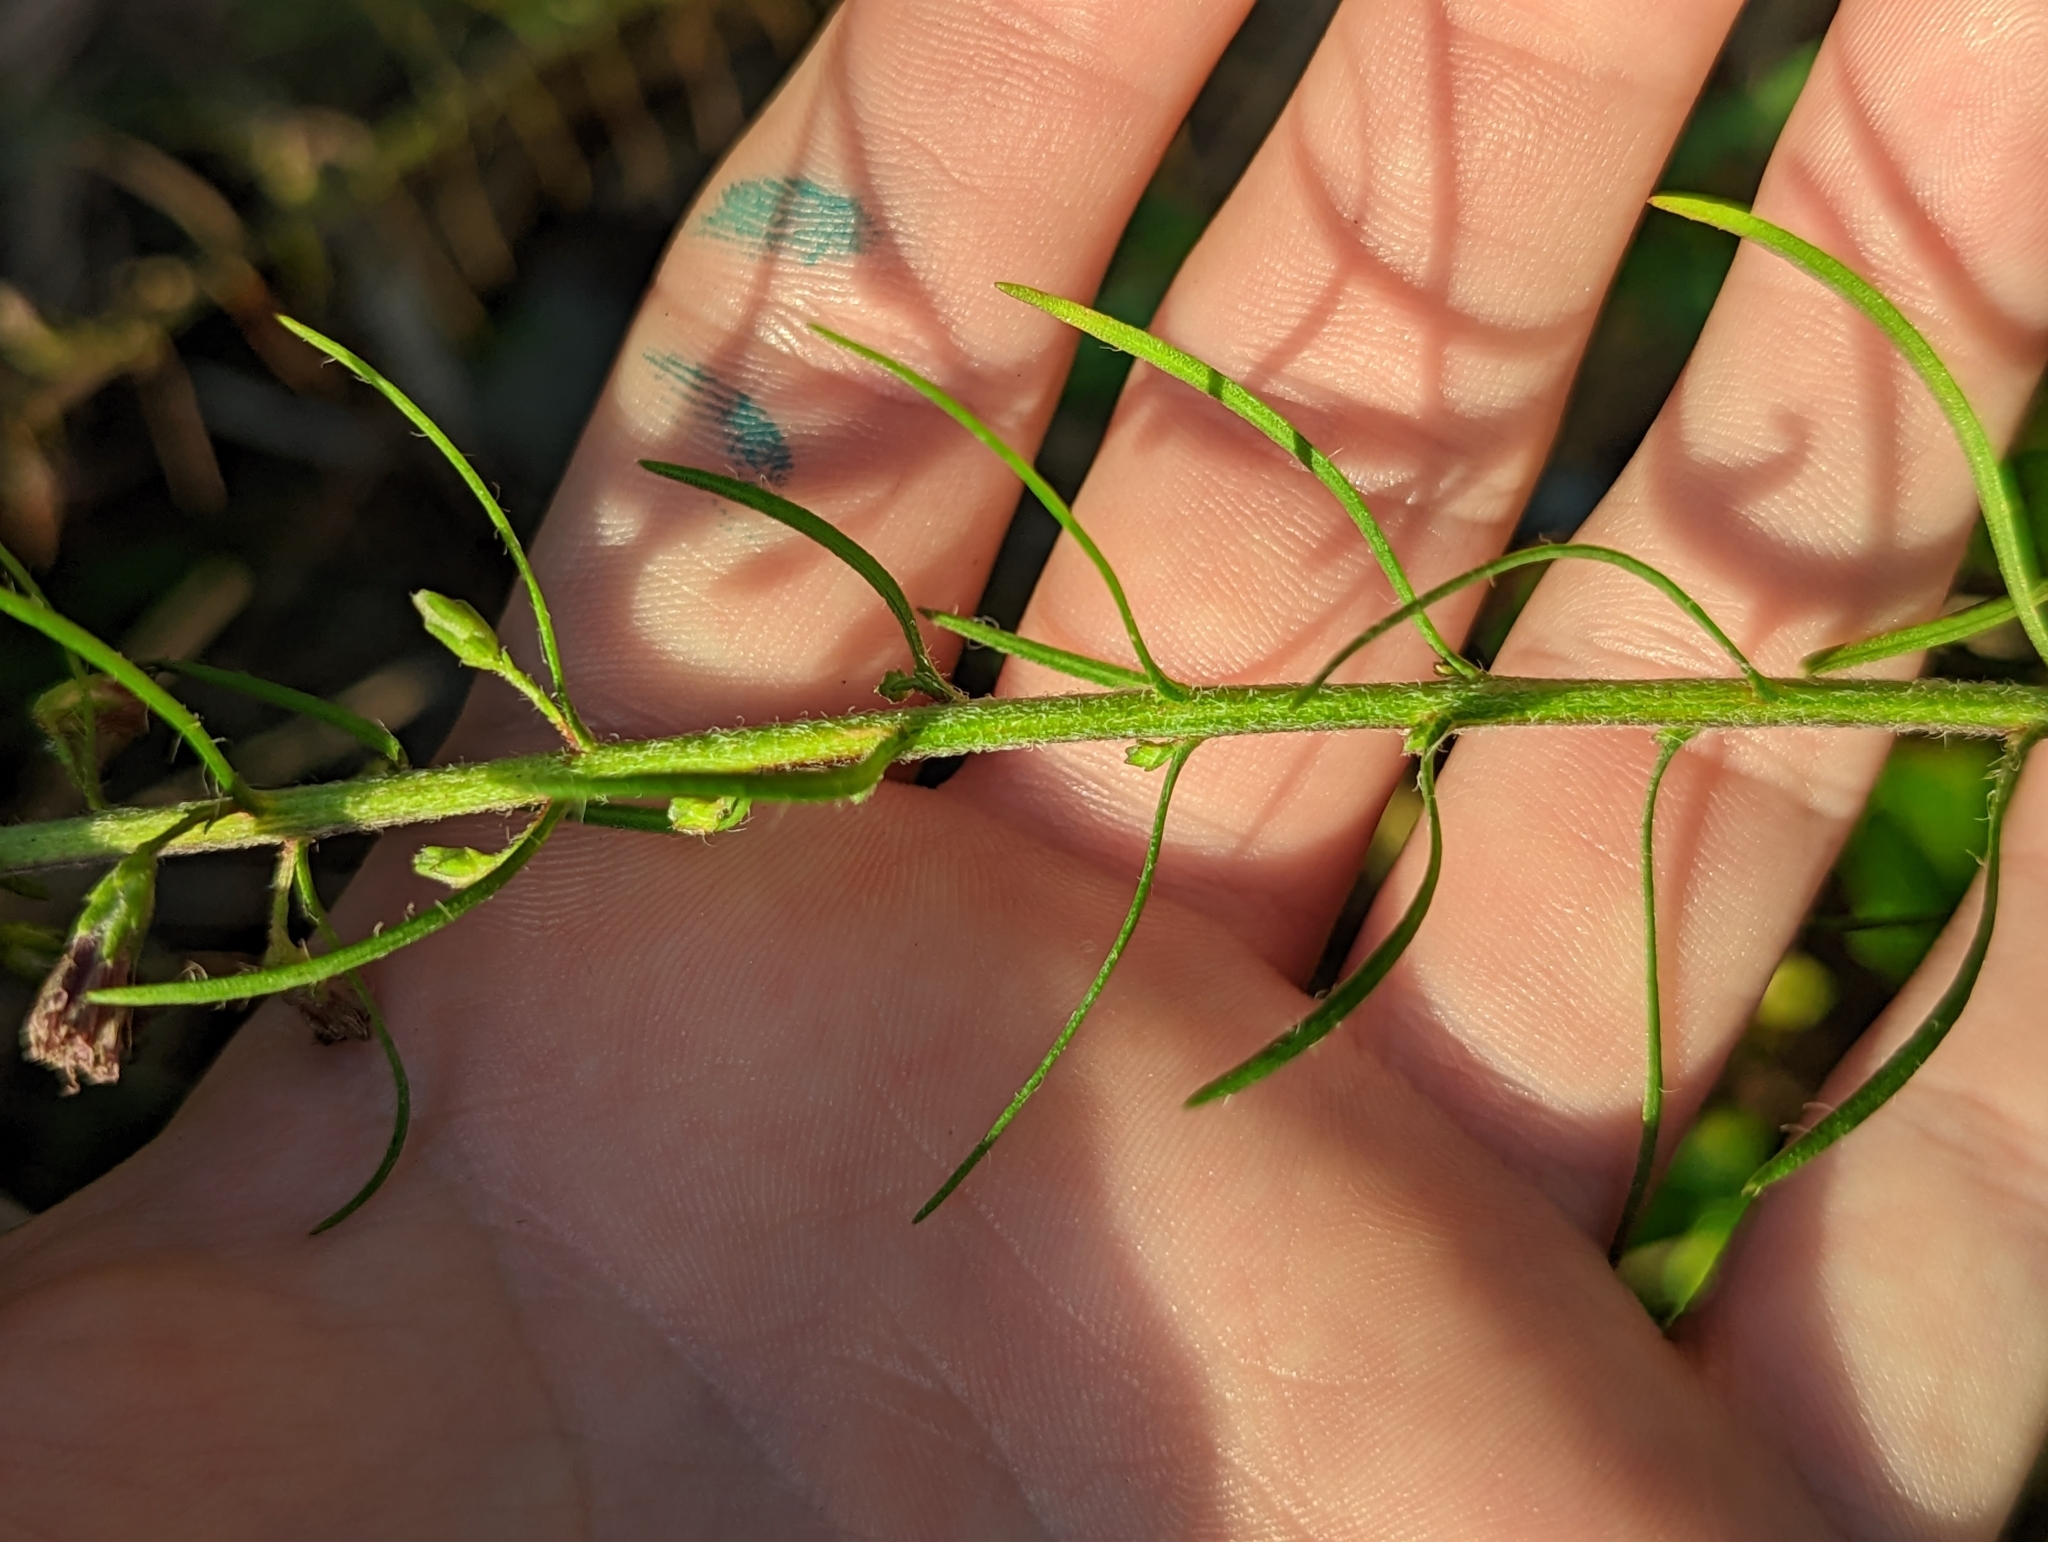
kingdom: Plantae
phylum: Tracheophyta
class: Magnoliopsida
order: Asterales
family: Asteraceae
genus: Liatris
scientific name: Liatris gracilis
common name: Slender gayfeather
